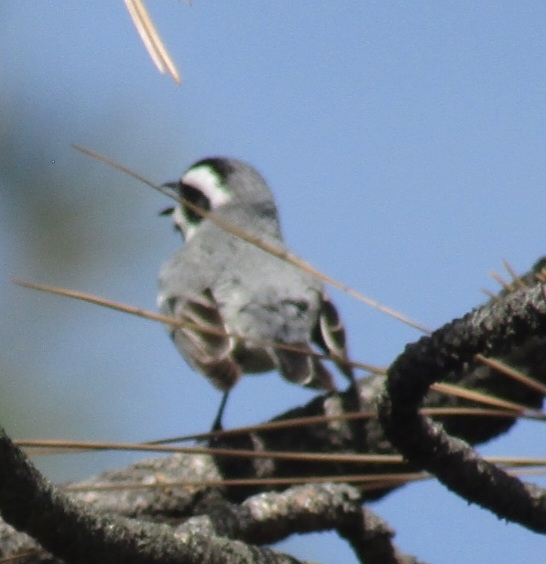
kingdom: Animalia
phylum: Chordata
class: Aves
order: Passeriformes
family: Parulidae
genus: Setophaga
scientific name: Setophaga nigrescens
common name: Black-throated gray warbler
